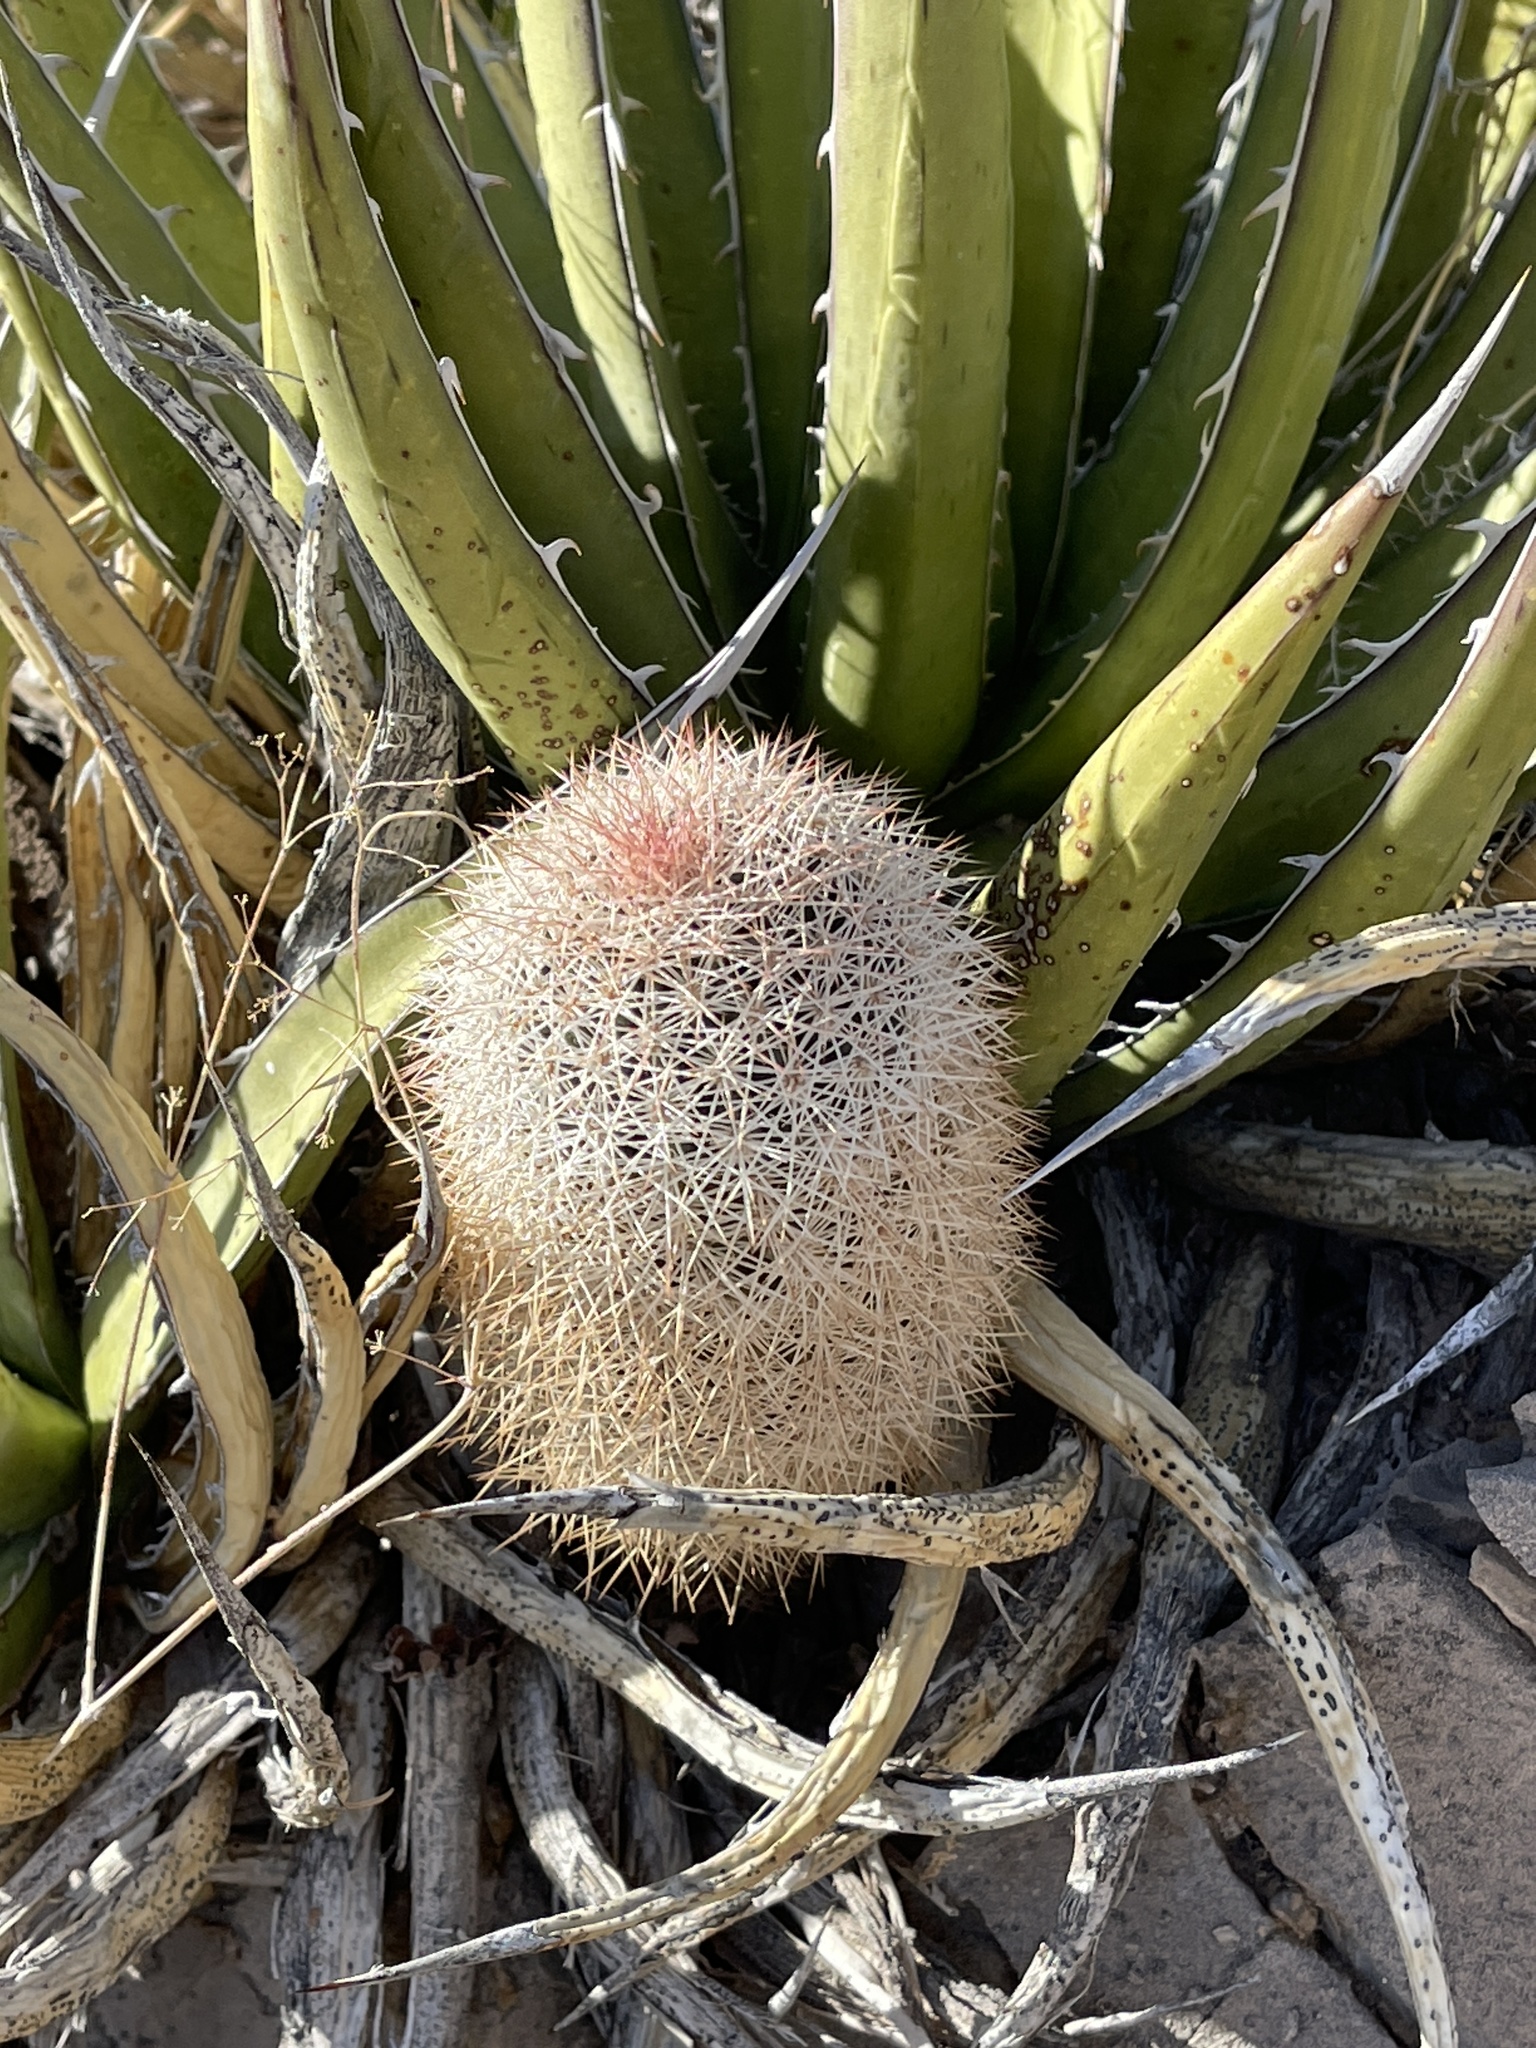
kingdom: Plantae
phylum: Tracheophyta
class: Magnoliopsida
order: Caryophyllales
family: Cactaceae
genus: Echinocereus
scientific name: Echinocereus dasyacanthus
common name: Spiny hedgehog cactus
